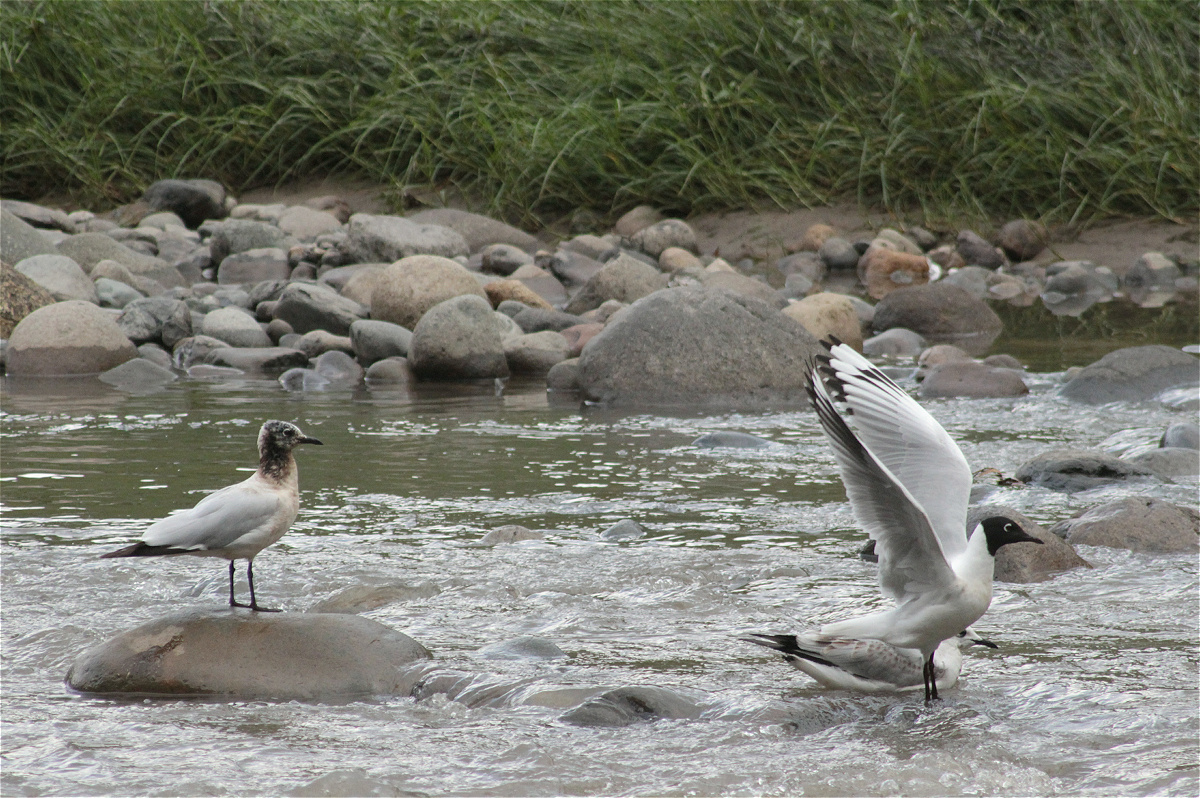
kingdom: Animalia
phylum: Chordata
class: Aves
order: Charadriiformes
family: Laridae
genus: Chroicocephalus
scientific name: Chroicocephalus serranus
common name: Andean gull
